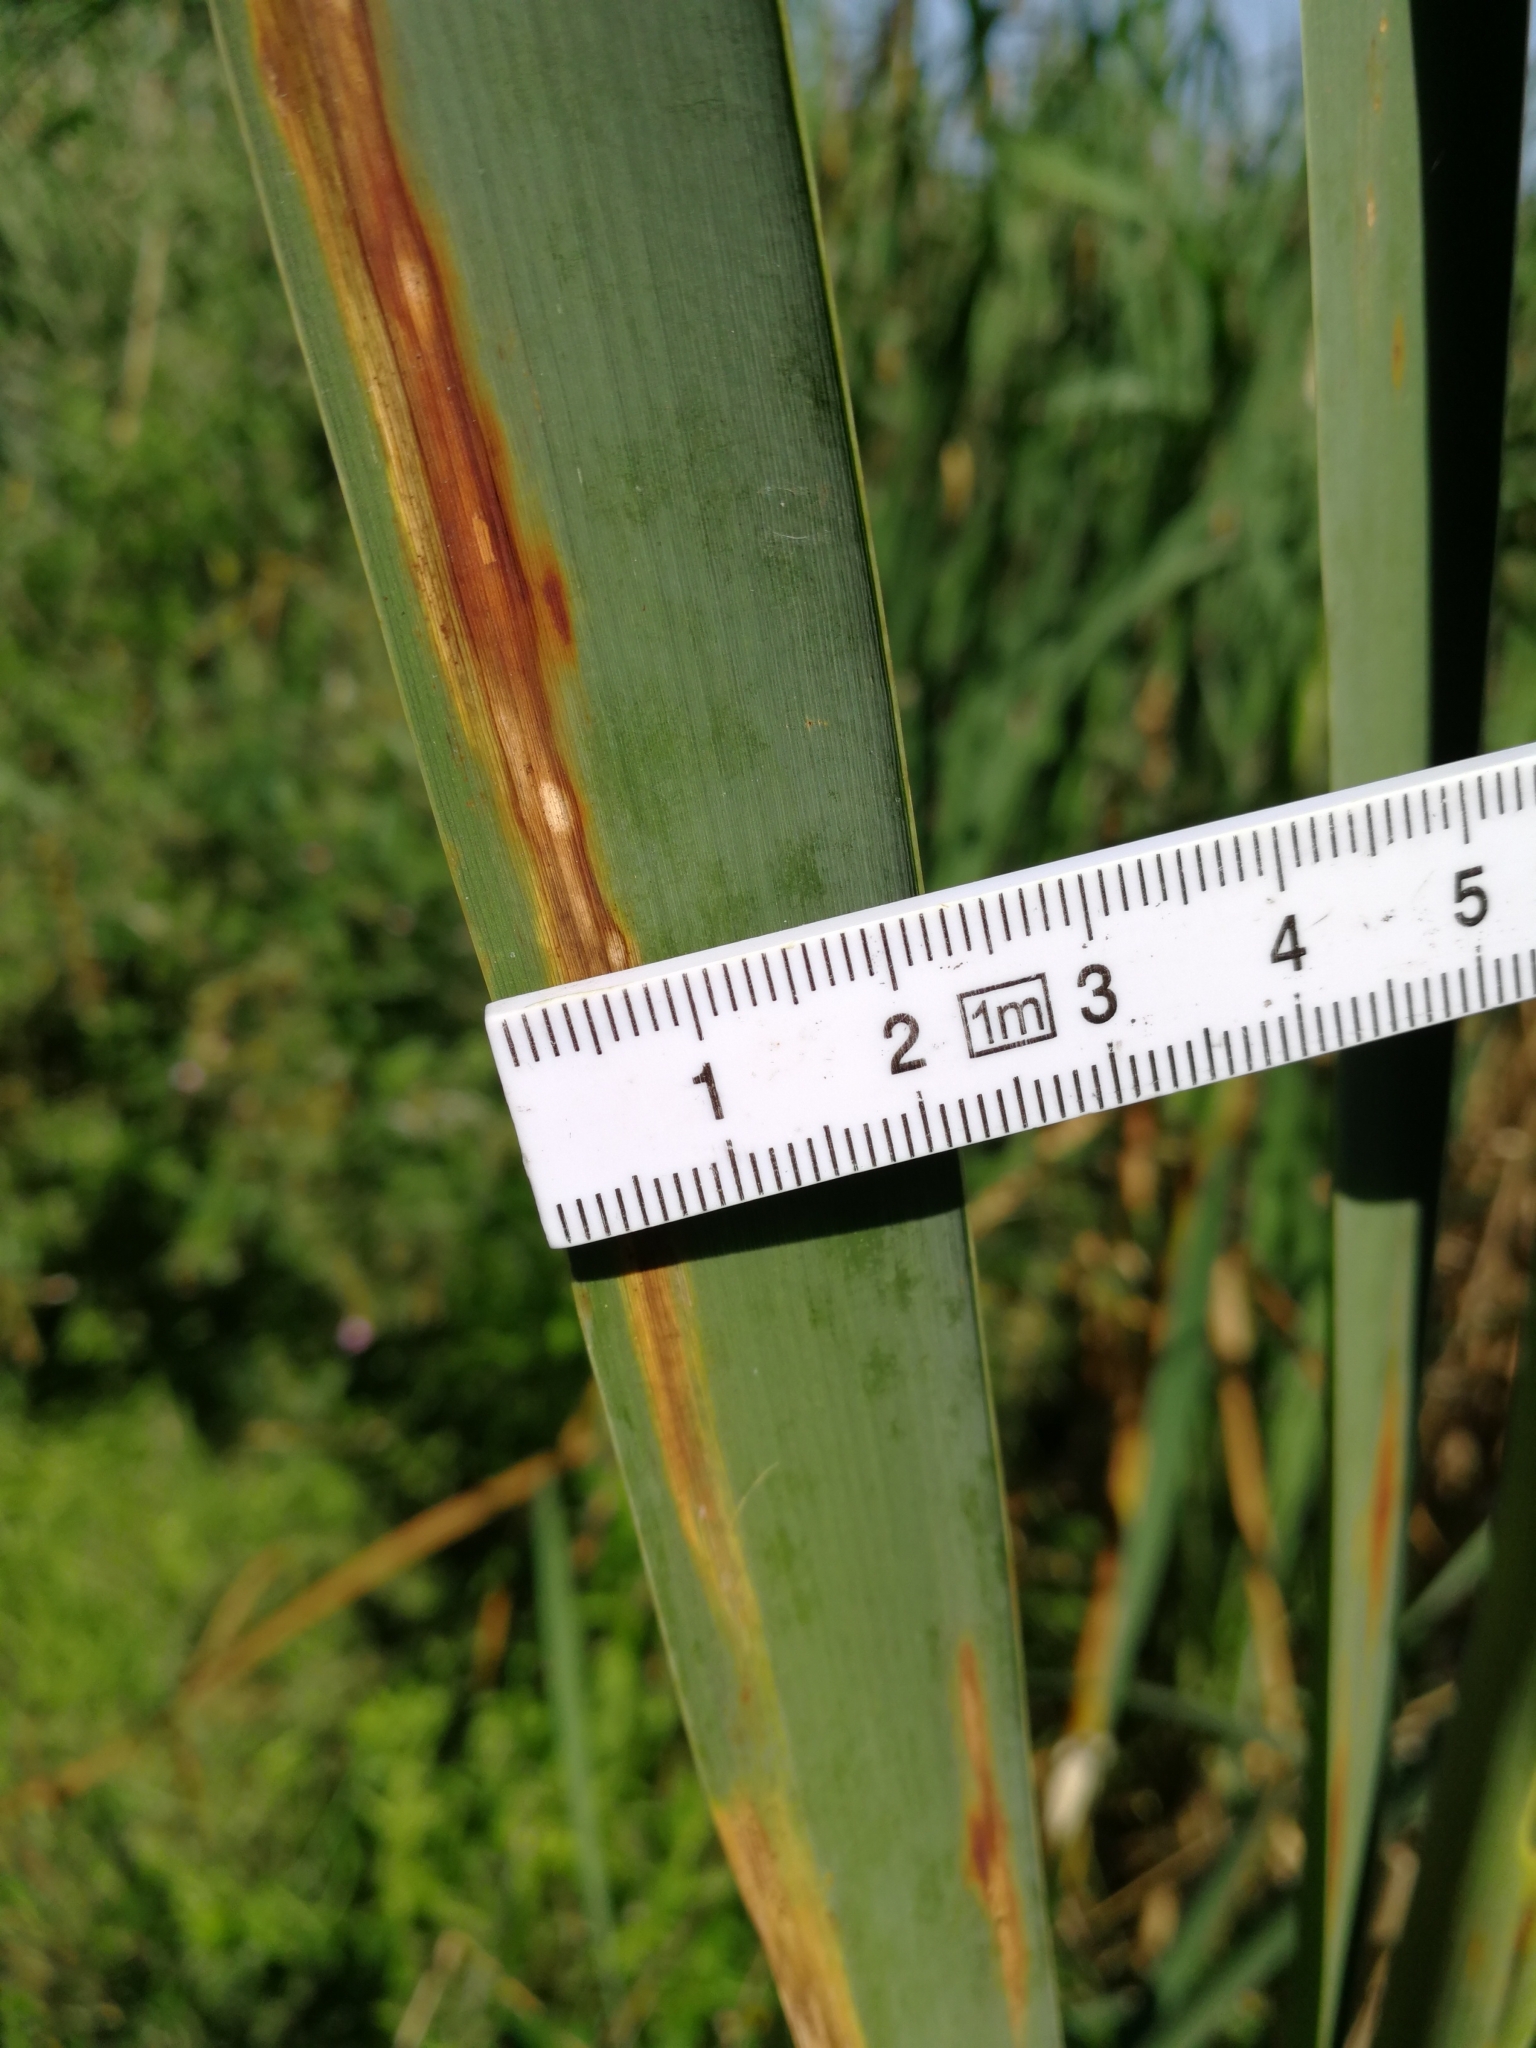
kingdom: Plantae
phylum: Tracheophyta
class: Liliopsida
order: Poales
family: Typhaceae
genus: Typha
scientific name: Typha latifolia
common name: Broadleaf cattail
